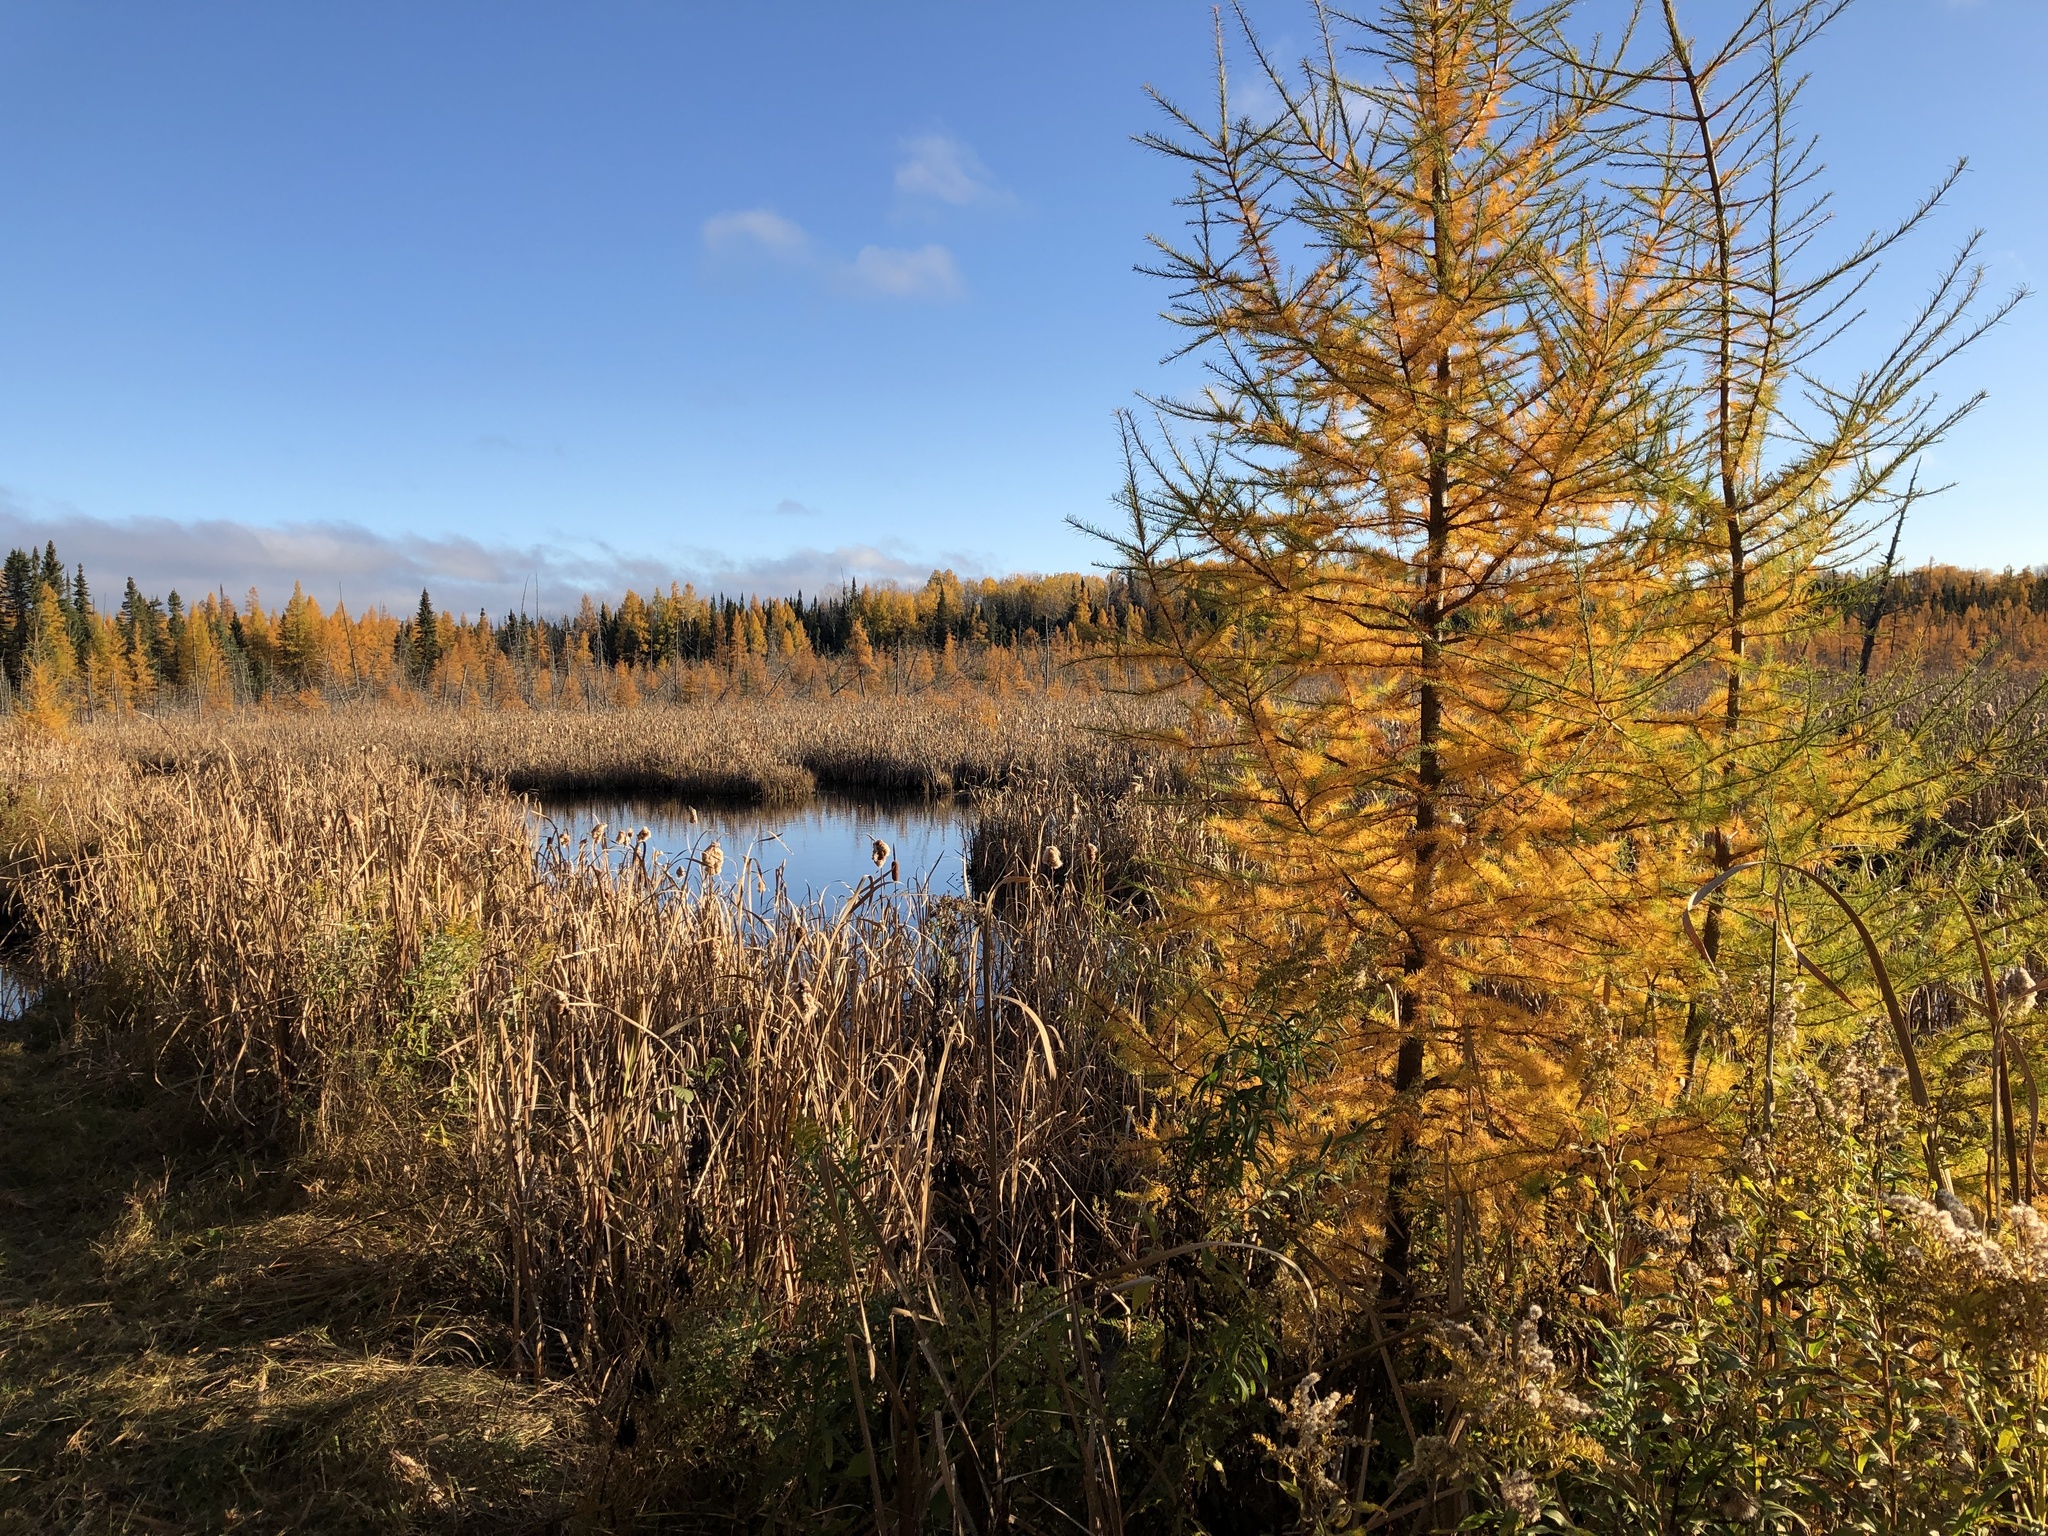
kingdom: Plantae
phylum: Tracheophyta
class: Pinopsida
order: Pinales
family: Pinaceae
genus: Larix
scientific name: Larix laricina
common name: American larch
